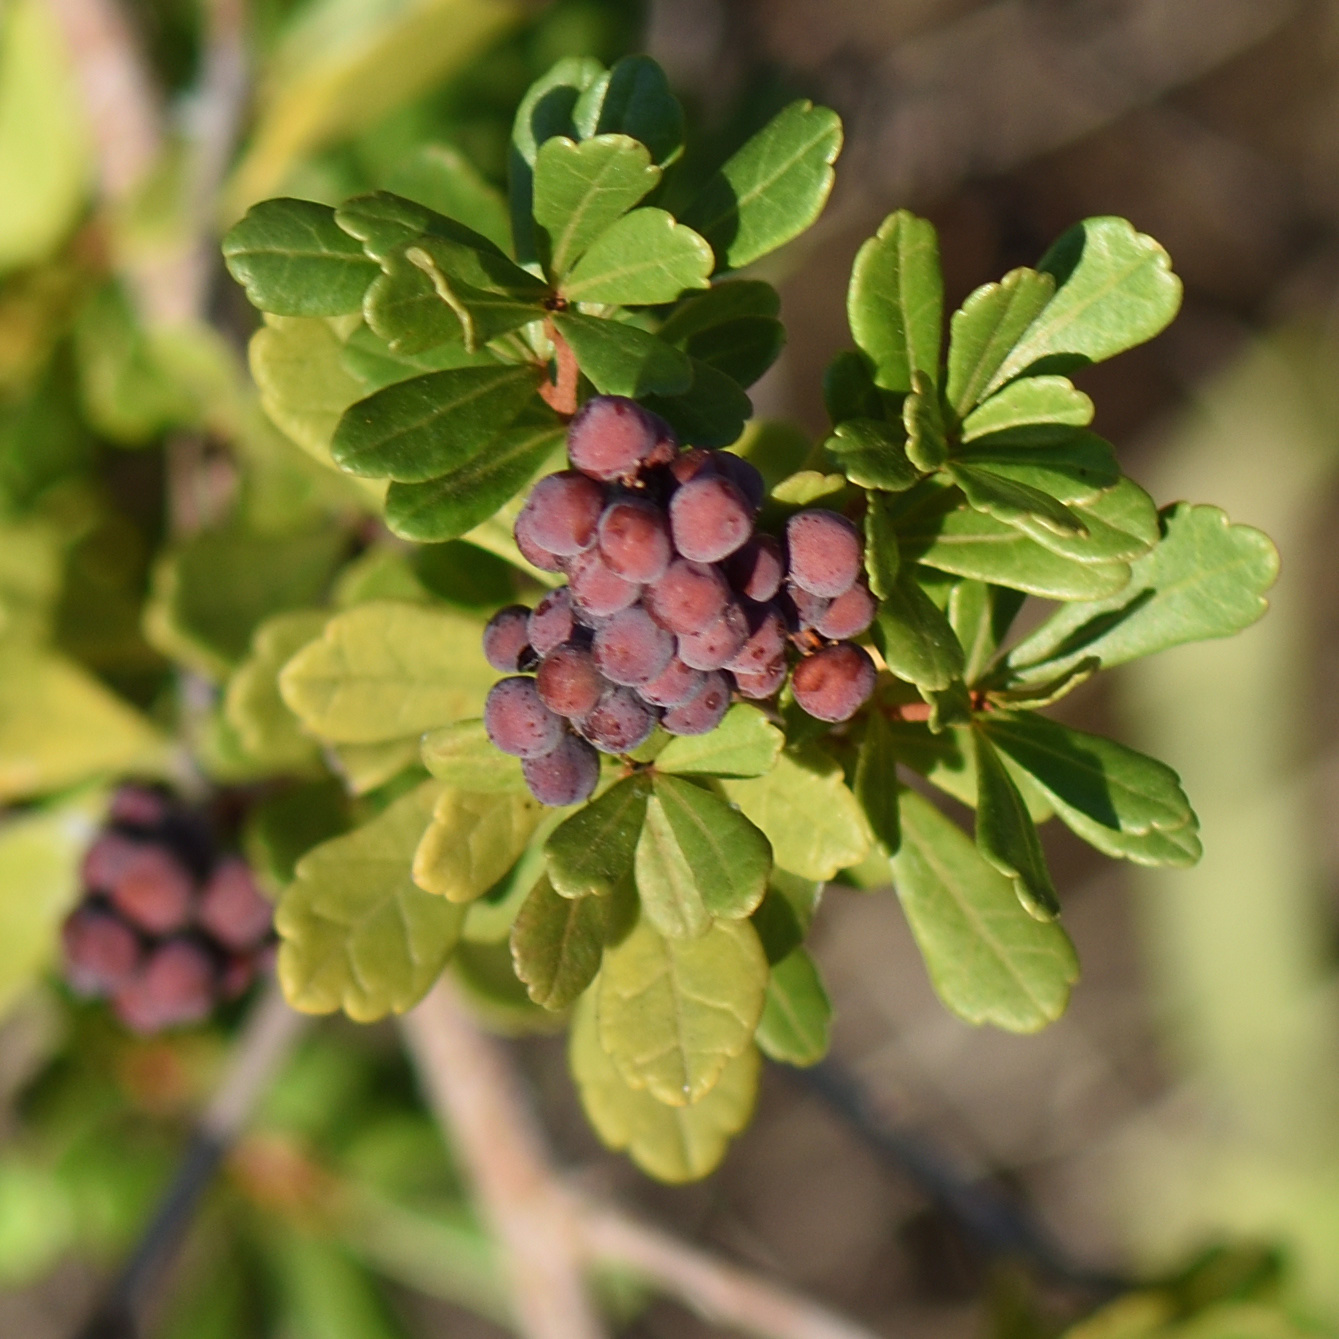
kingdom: Plantae
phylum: Tracheophyta
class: Magnoliopsida
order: Sapindales
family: Anacardiaceae
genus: Searsia
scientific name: Searsia crenata
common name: Crowberry
